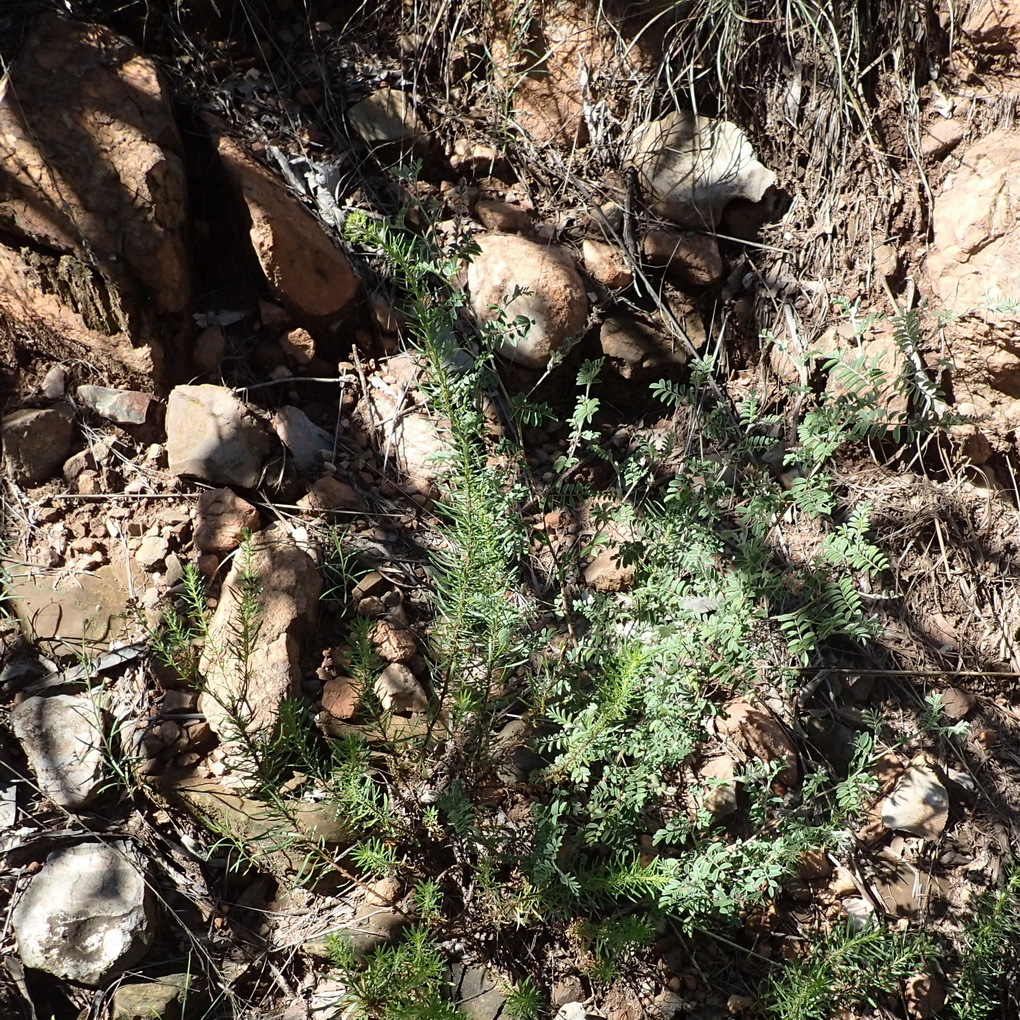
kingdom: Plantae
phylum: Tracheophyta
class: Magnoliopsida
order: Fabales
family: Fabaceae
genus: Indigofera
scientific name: Indigofera melanadenia
